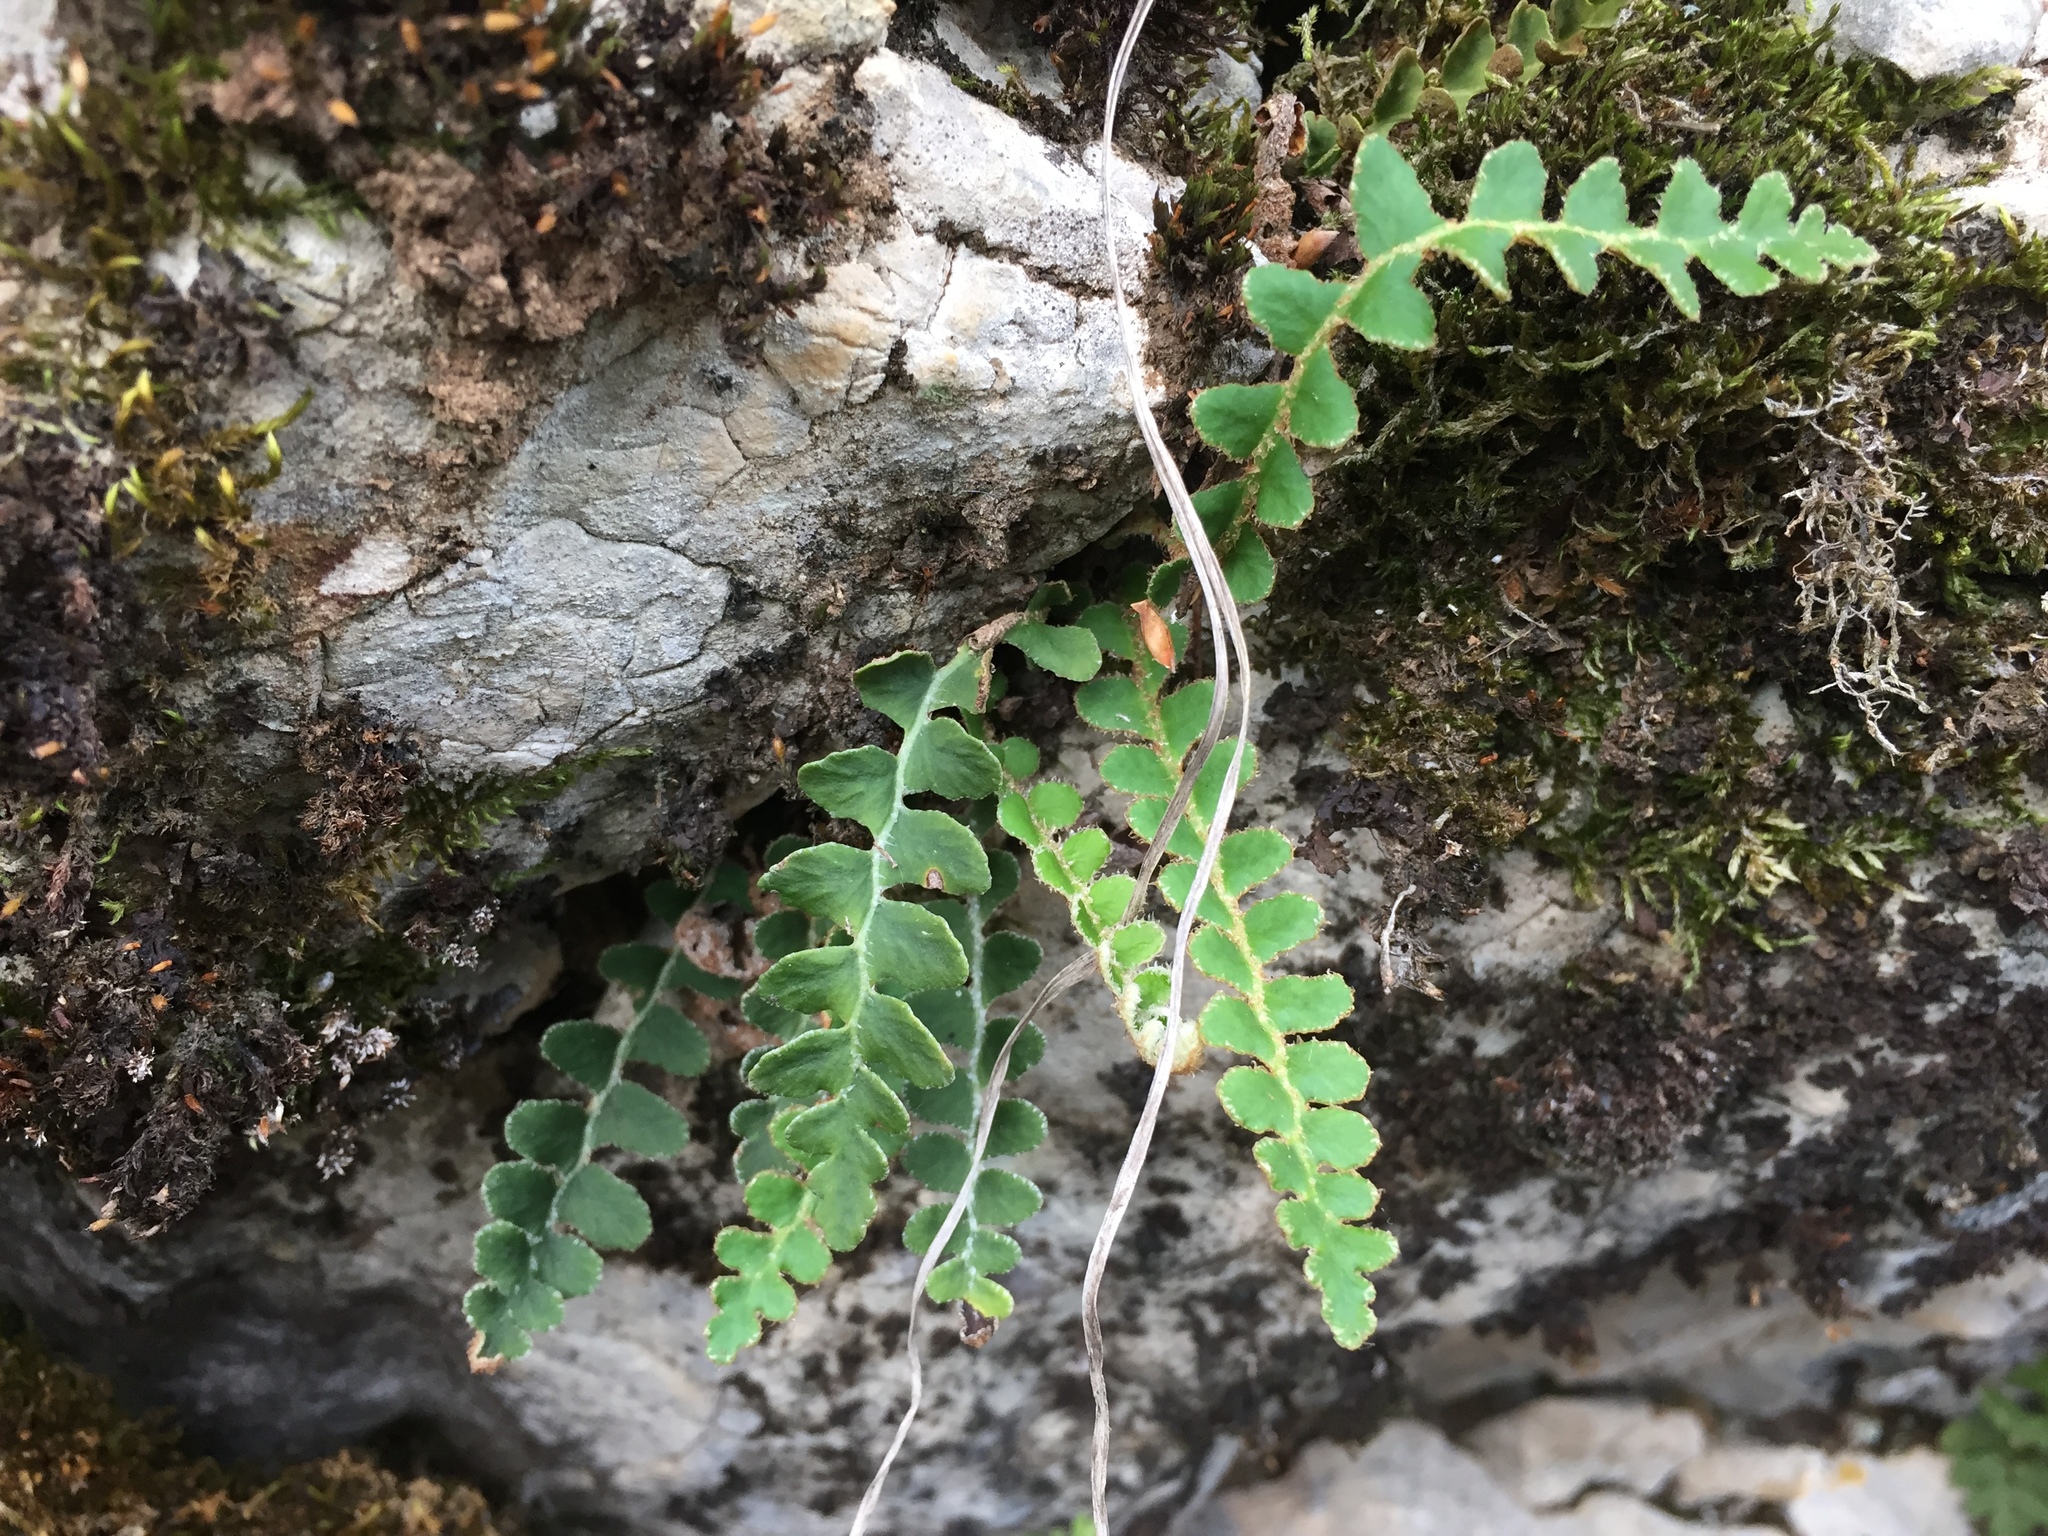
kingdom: Plantae
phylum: Tracheophyta
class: Polypodiopsida
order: Polypodiales
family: Aspleniaceae
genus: Asplenium
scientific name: Asplenium ceterach
